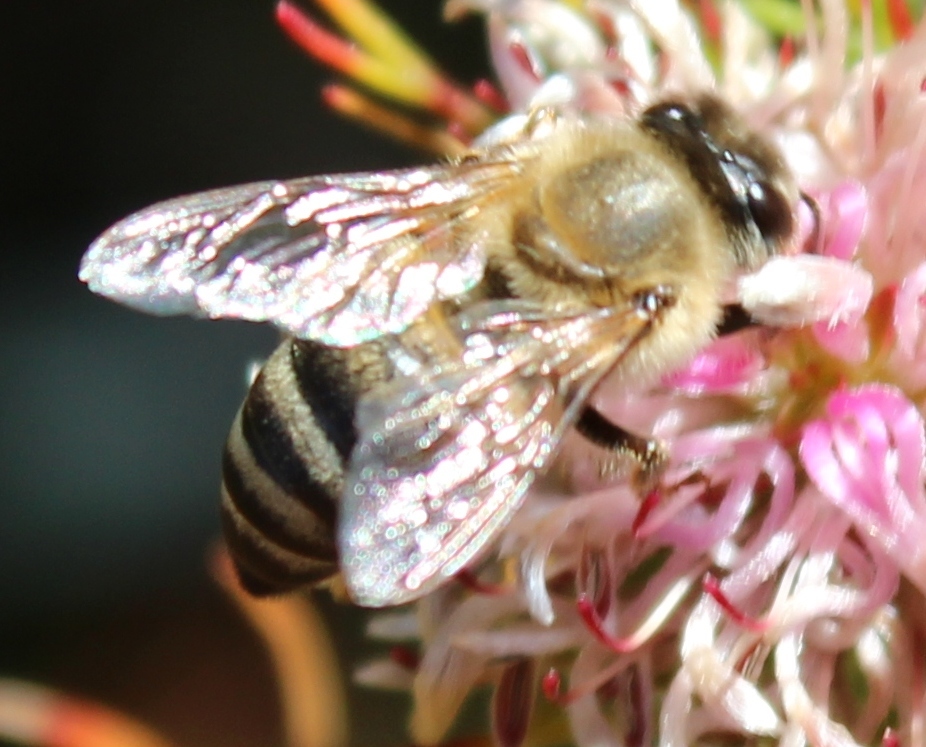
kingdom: Animalia
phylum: Arthropoda
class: Insecta
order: Hymenoptera
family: Apidae
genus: Apis
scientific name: Apis mellifera
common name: Honey bee
